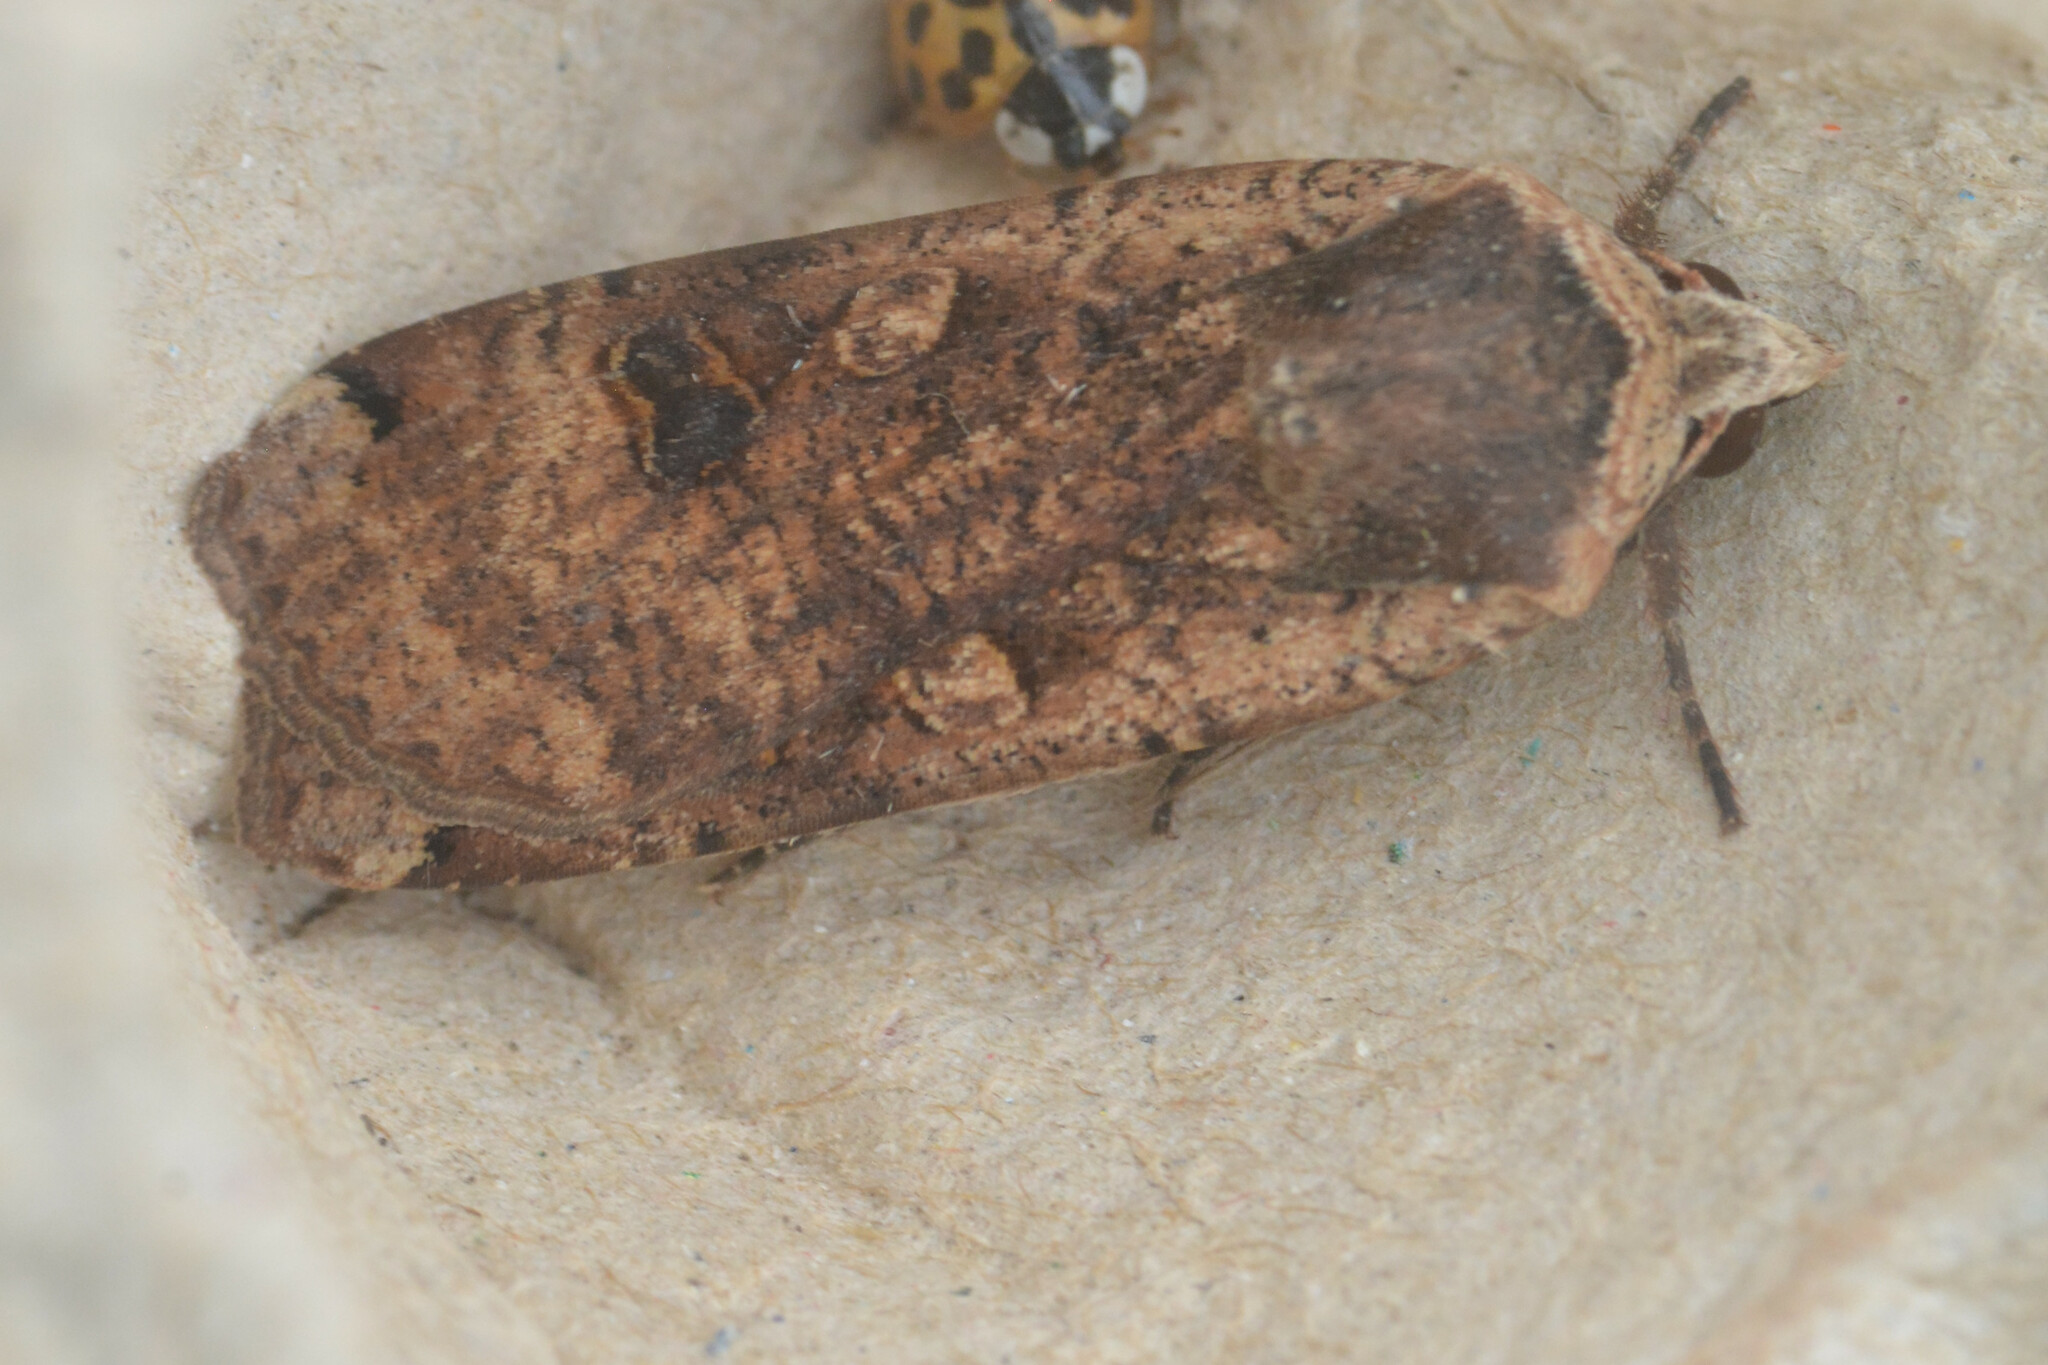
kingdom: Animalia
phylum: Arthropoda
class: Insecta
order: Lepidoptera
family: Noctuidae
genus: Noctua
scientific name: Noctua pronuba
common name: Large yellow underwing
